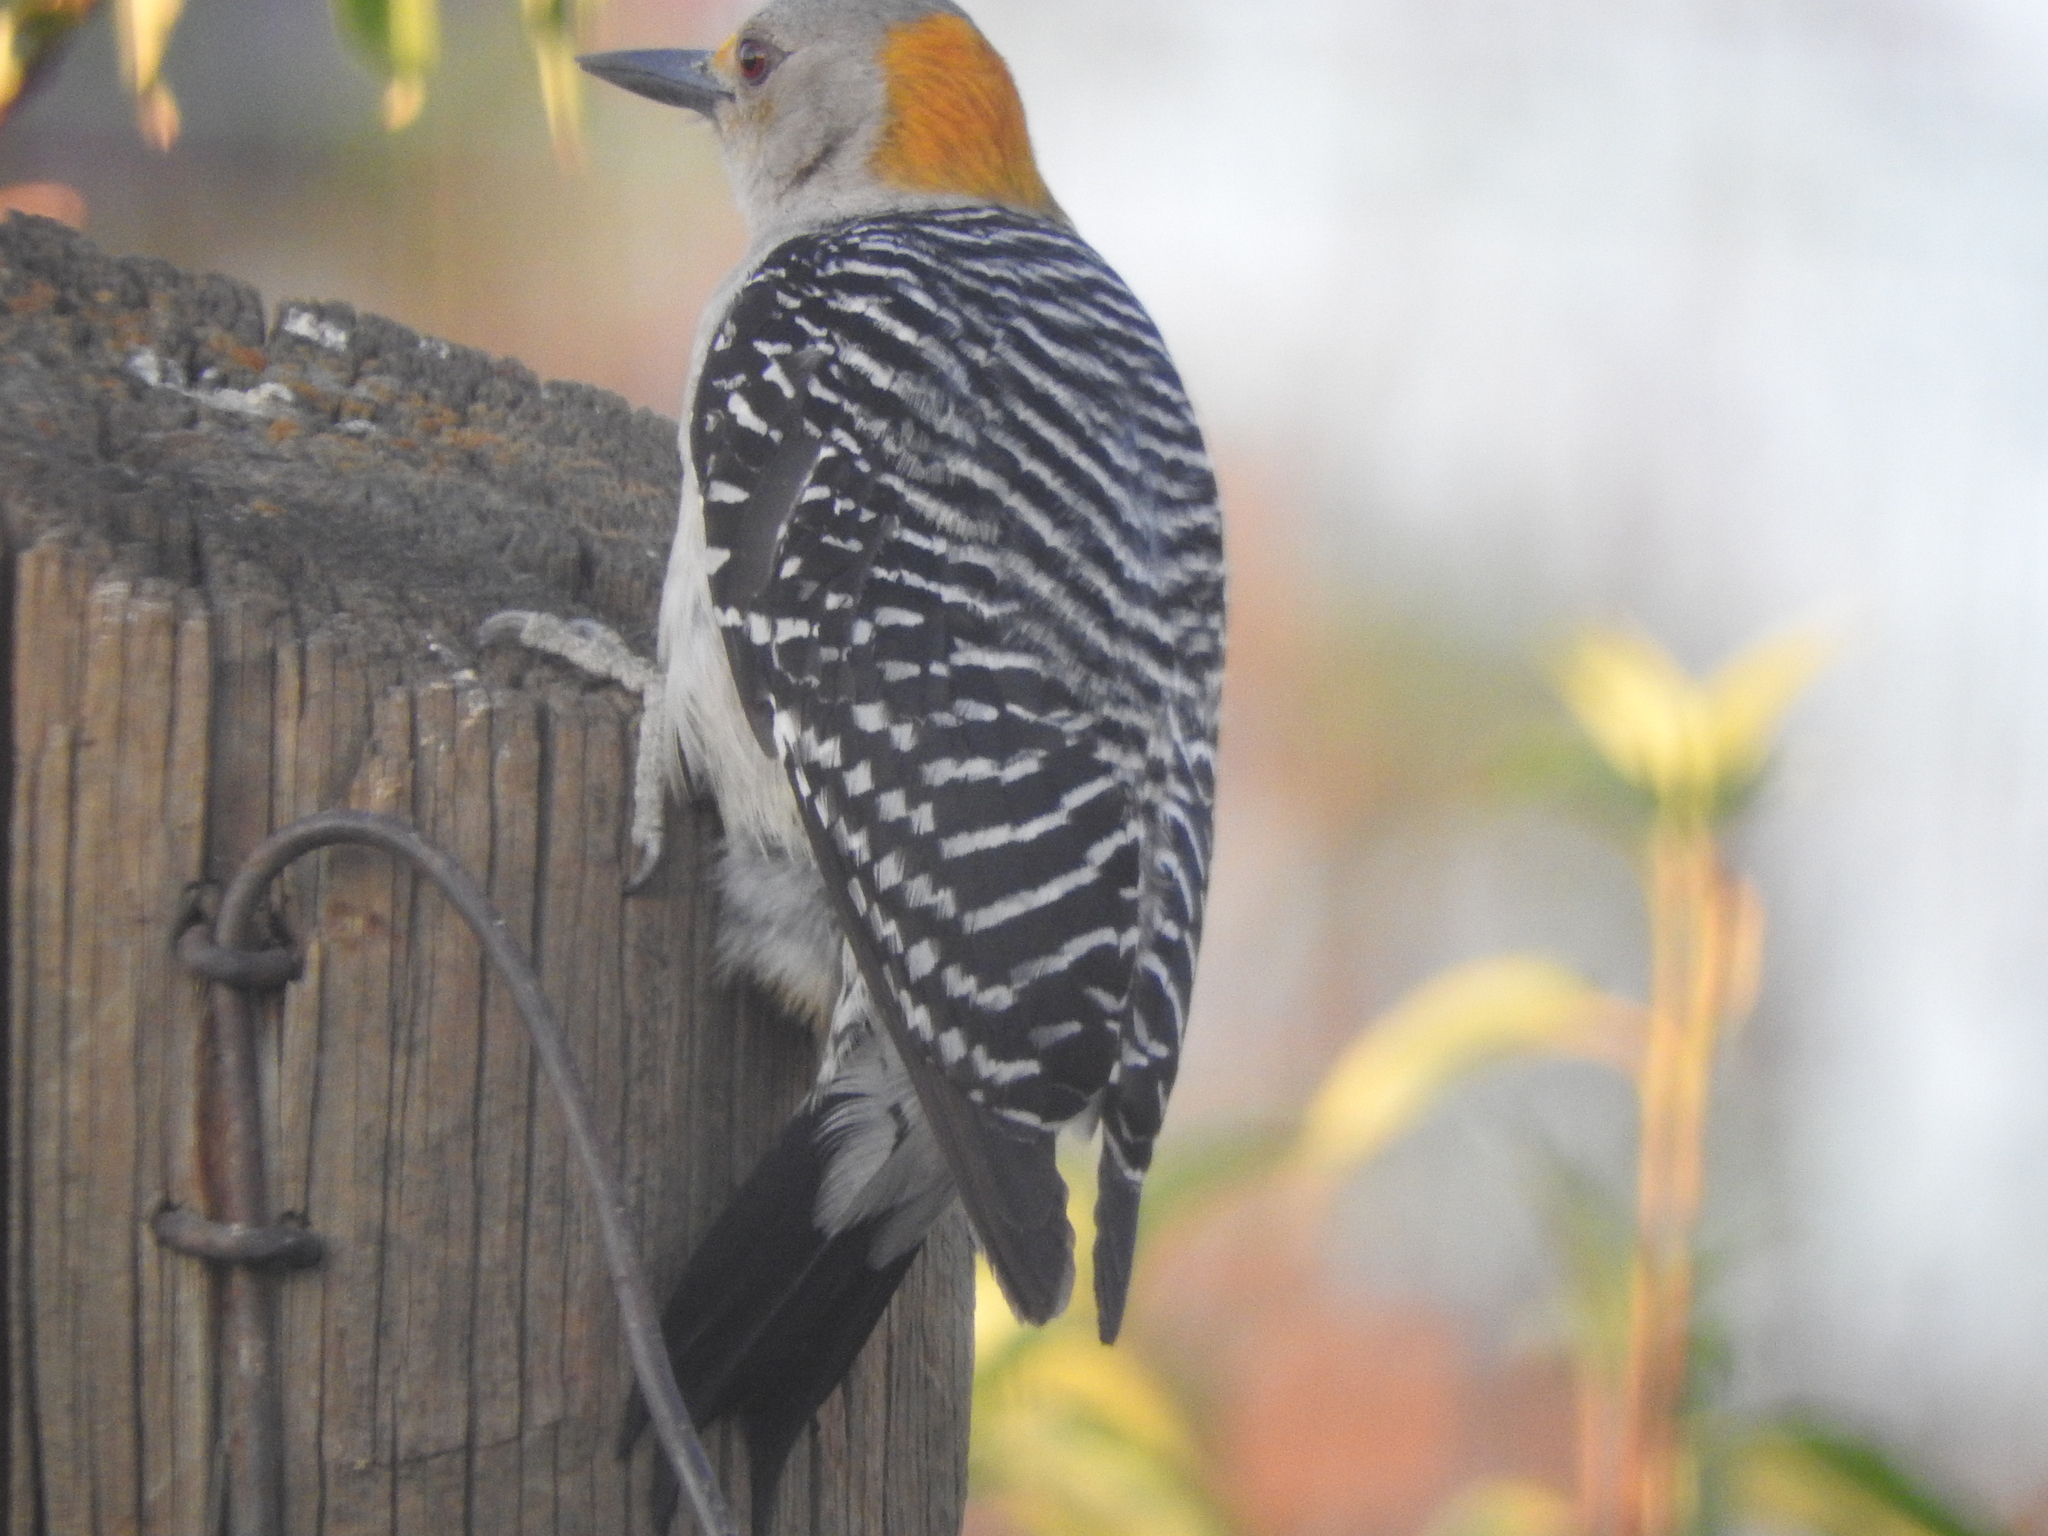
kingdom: Animalia
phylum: Chordata
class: Aves
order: Piciformes
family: Picidae
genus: Melanerpes
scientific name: Melanerpes aurifrons
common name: Golden-fronted woodpecker
